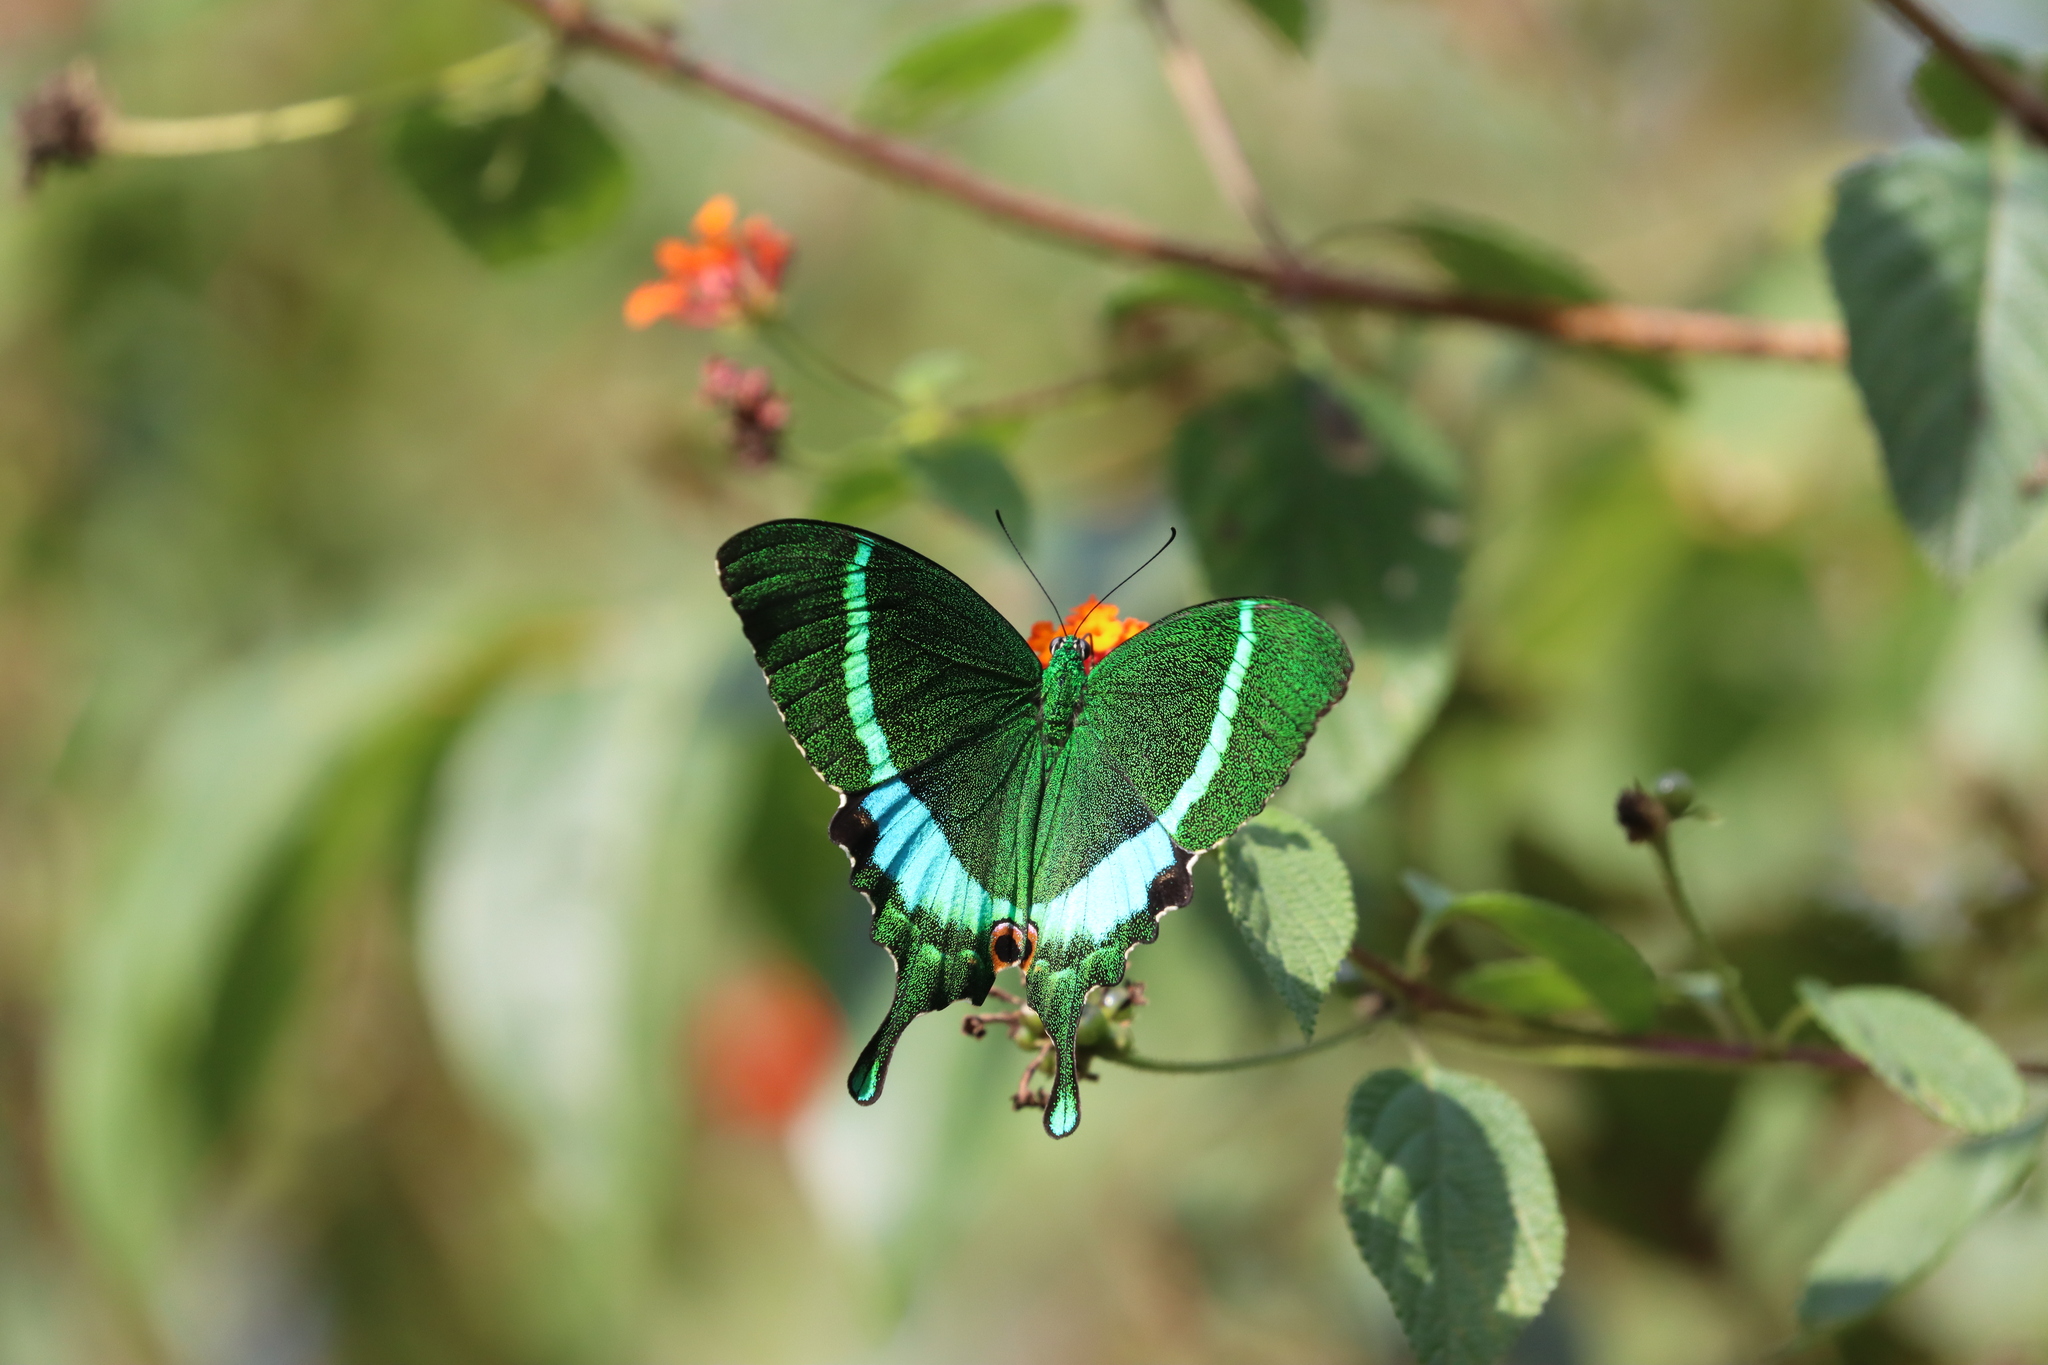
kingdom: Animalia
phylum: Arthropoda
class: Insecta
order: Lepidoptera
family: Papilionidae
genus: Papilio
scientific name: Papilio crino
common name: Common banded peacock
